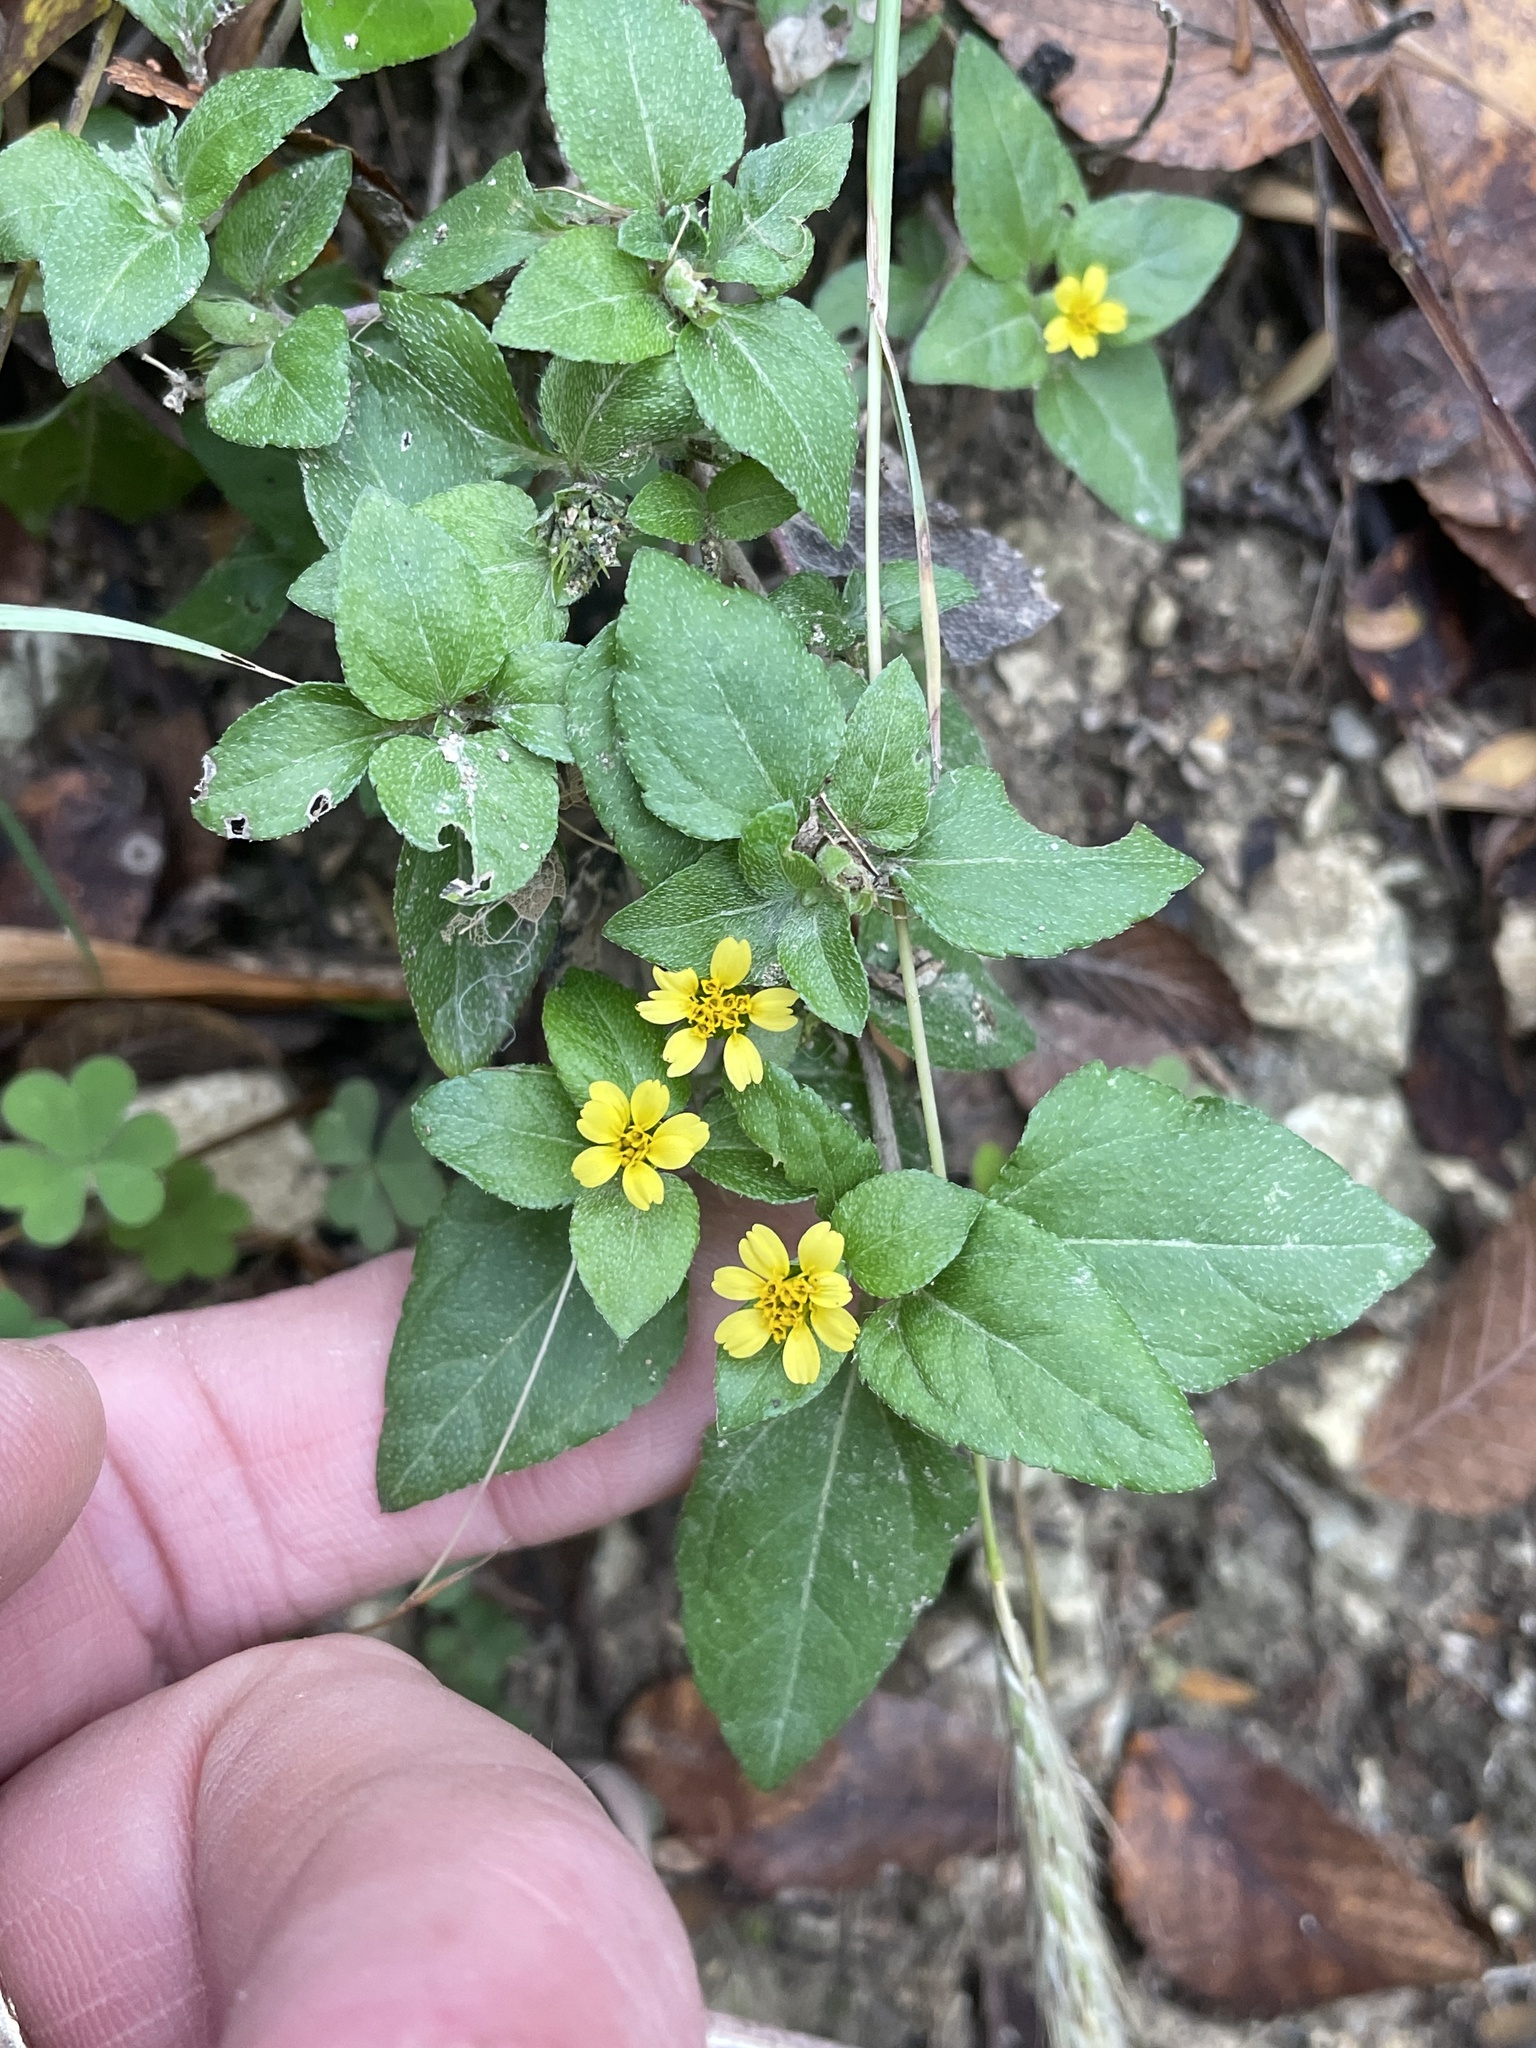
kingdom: Plantae
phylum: Tracheophyta
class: Magnoliopsida
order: Asterales
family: Asteraceae
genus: Calyptocarpus
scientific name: Calyptocarpus vialis
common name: Straggler daisy
